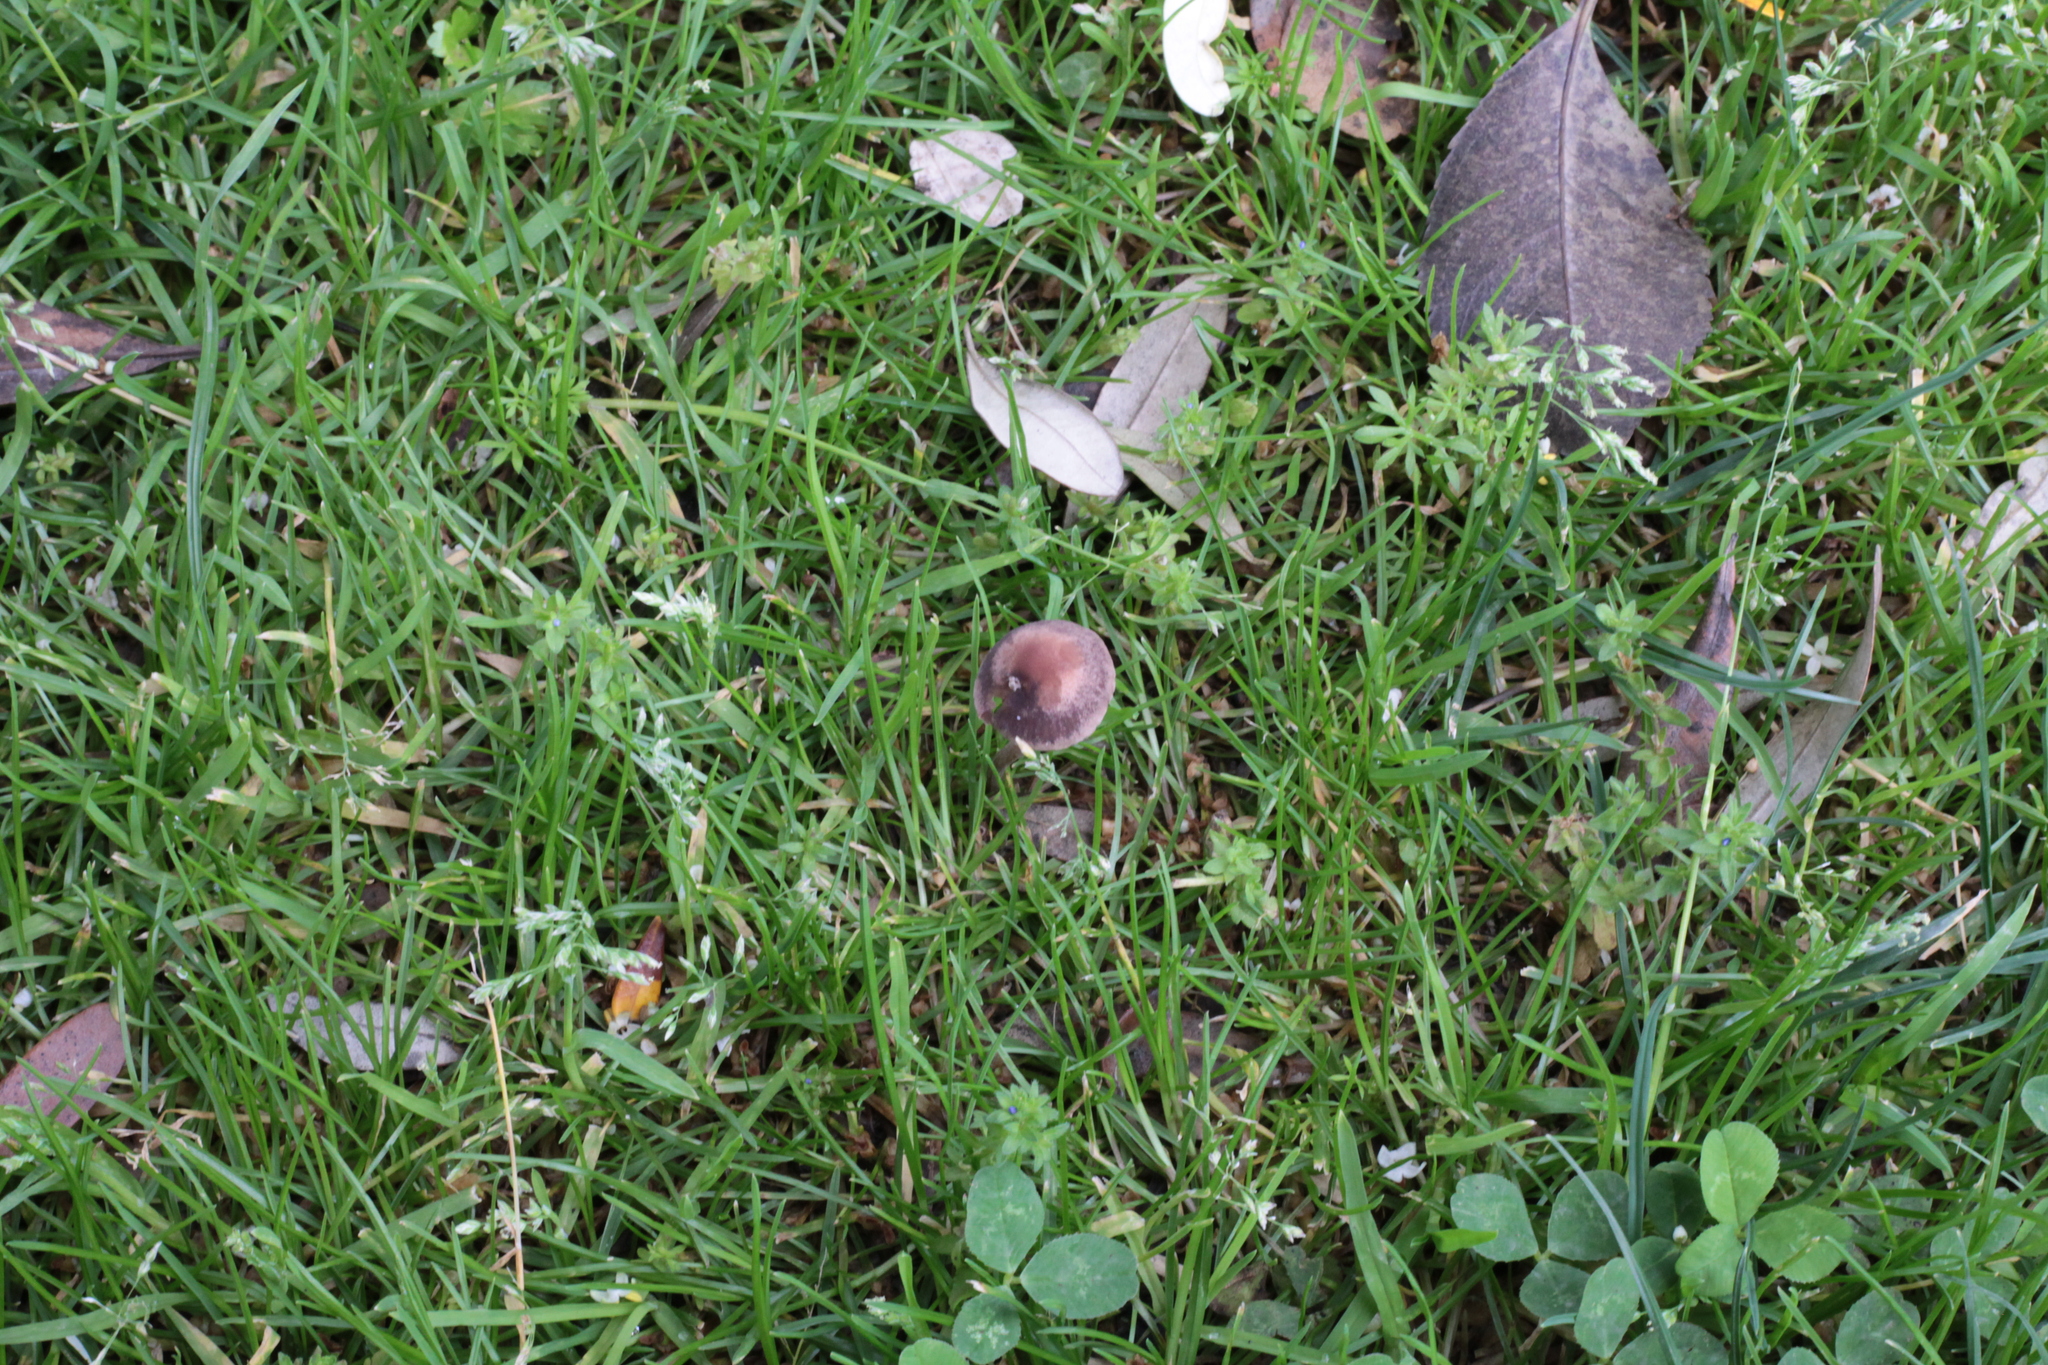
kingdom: Fungi
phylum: Basidiomycota
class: Agaricomycetes
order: Agaricales
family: Bolbitiaceae
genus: Panaeolina
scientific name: Panaeolina foenisecii
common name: Brown hay cap
